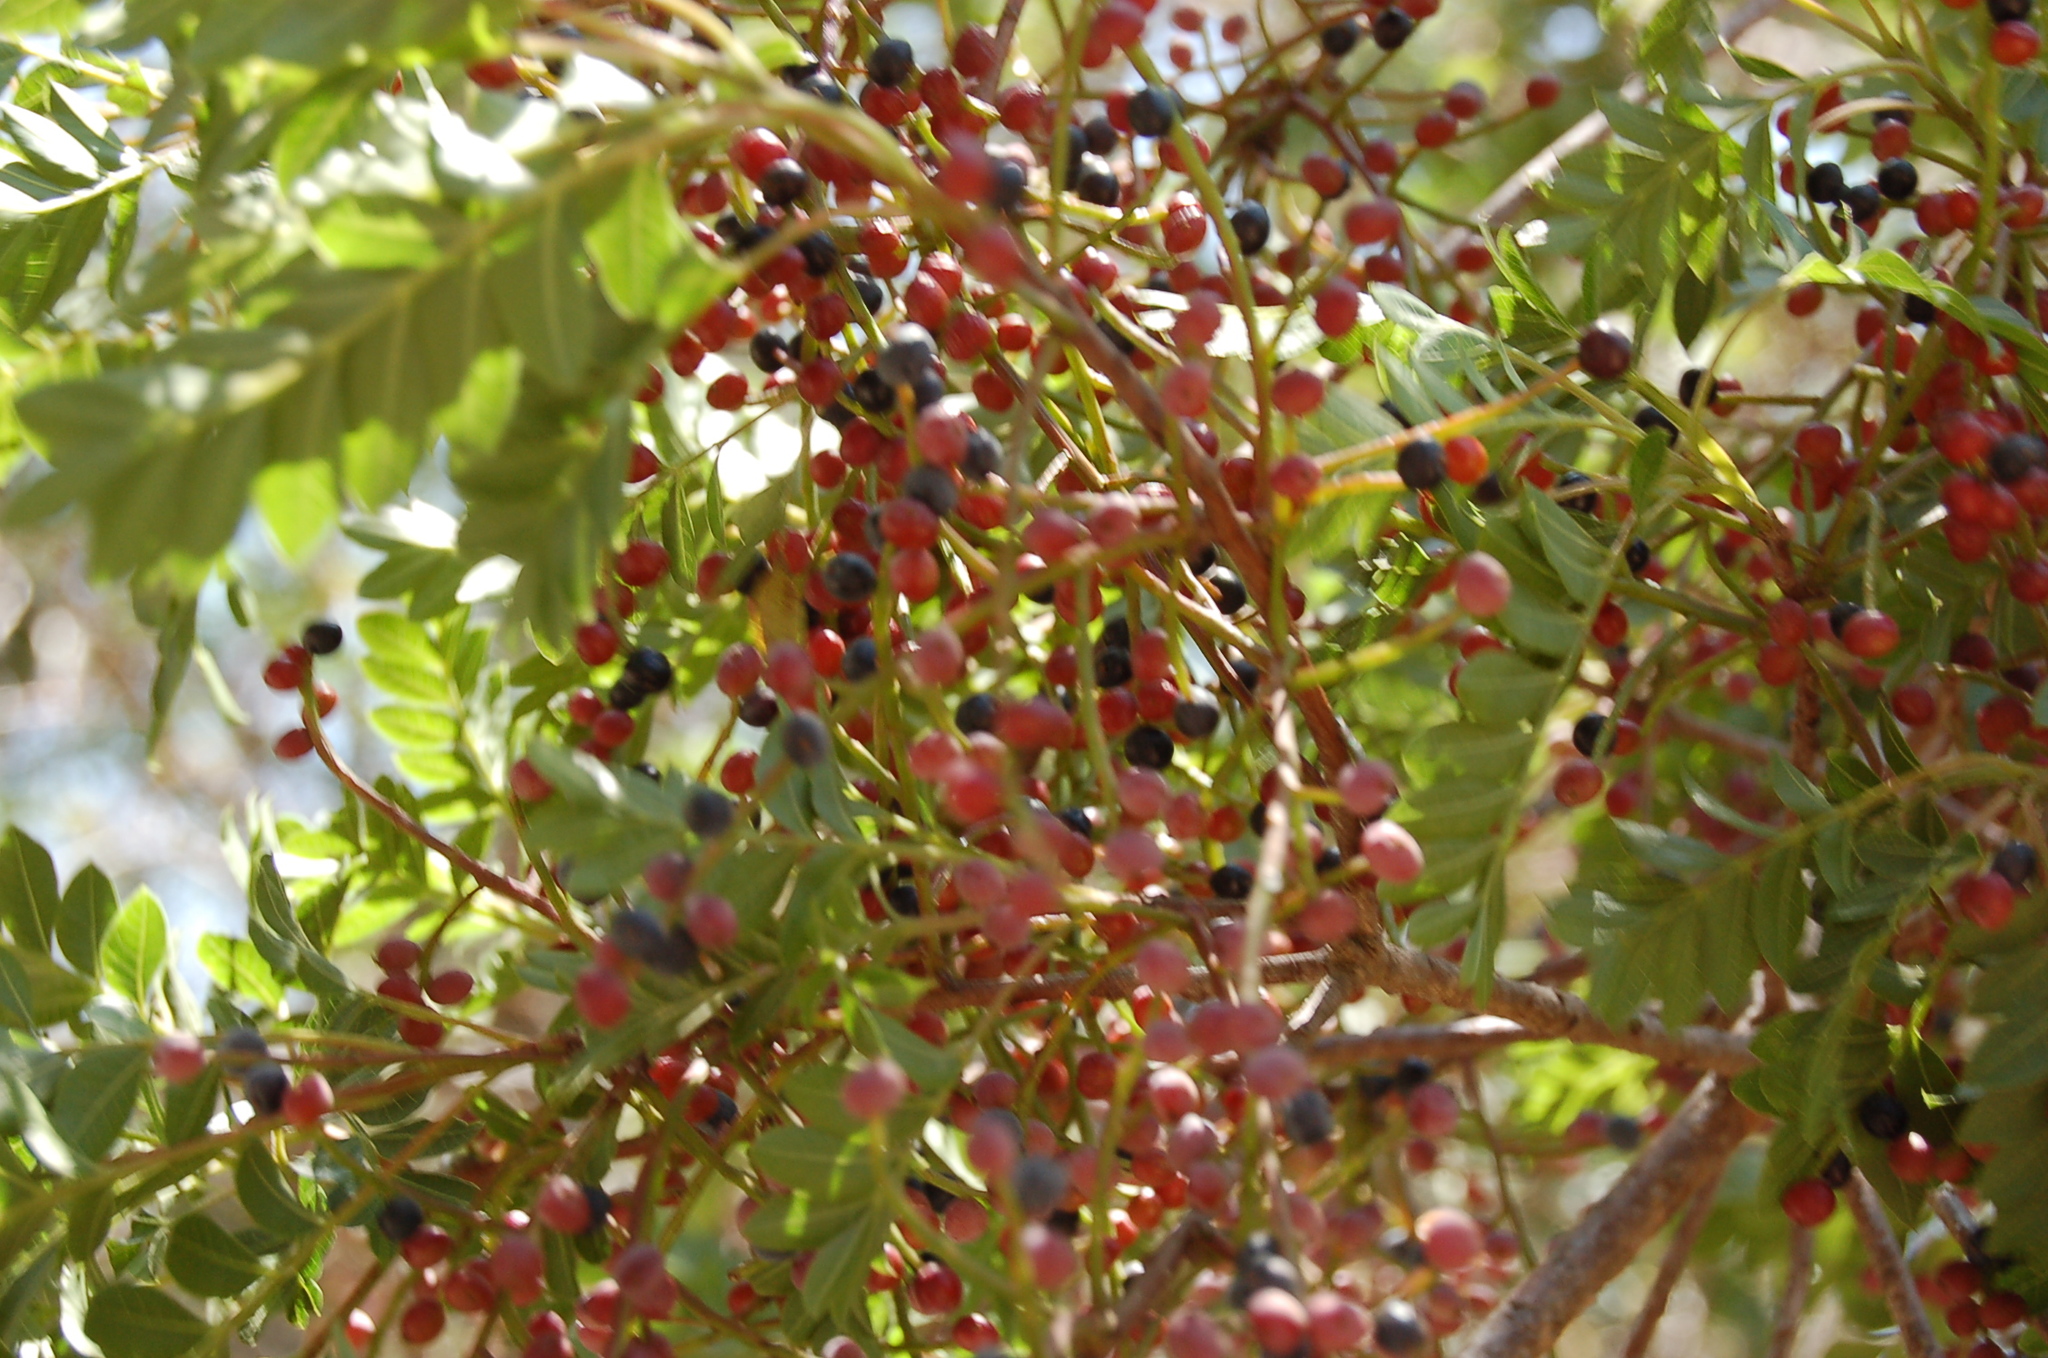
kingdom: Plantae
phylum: Tracheophyta
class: Magnoliopsida
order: Sapindales
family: Anacardiaceae
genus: Pistacia
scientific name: Pistacia mexicana
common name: Mexican pistachio
